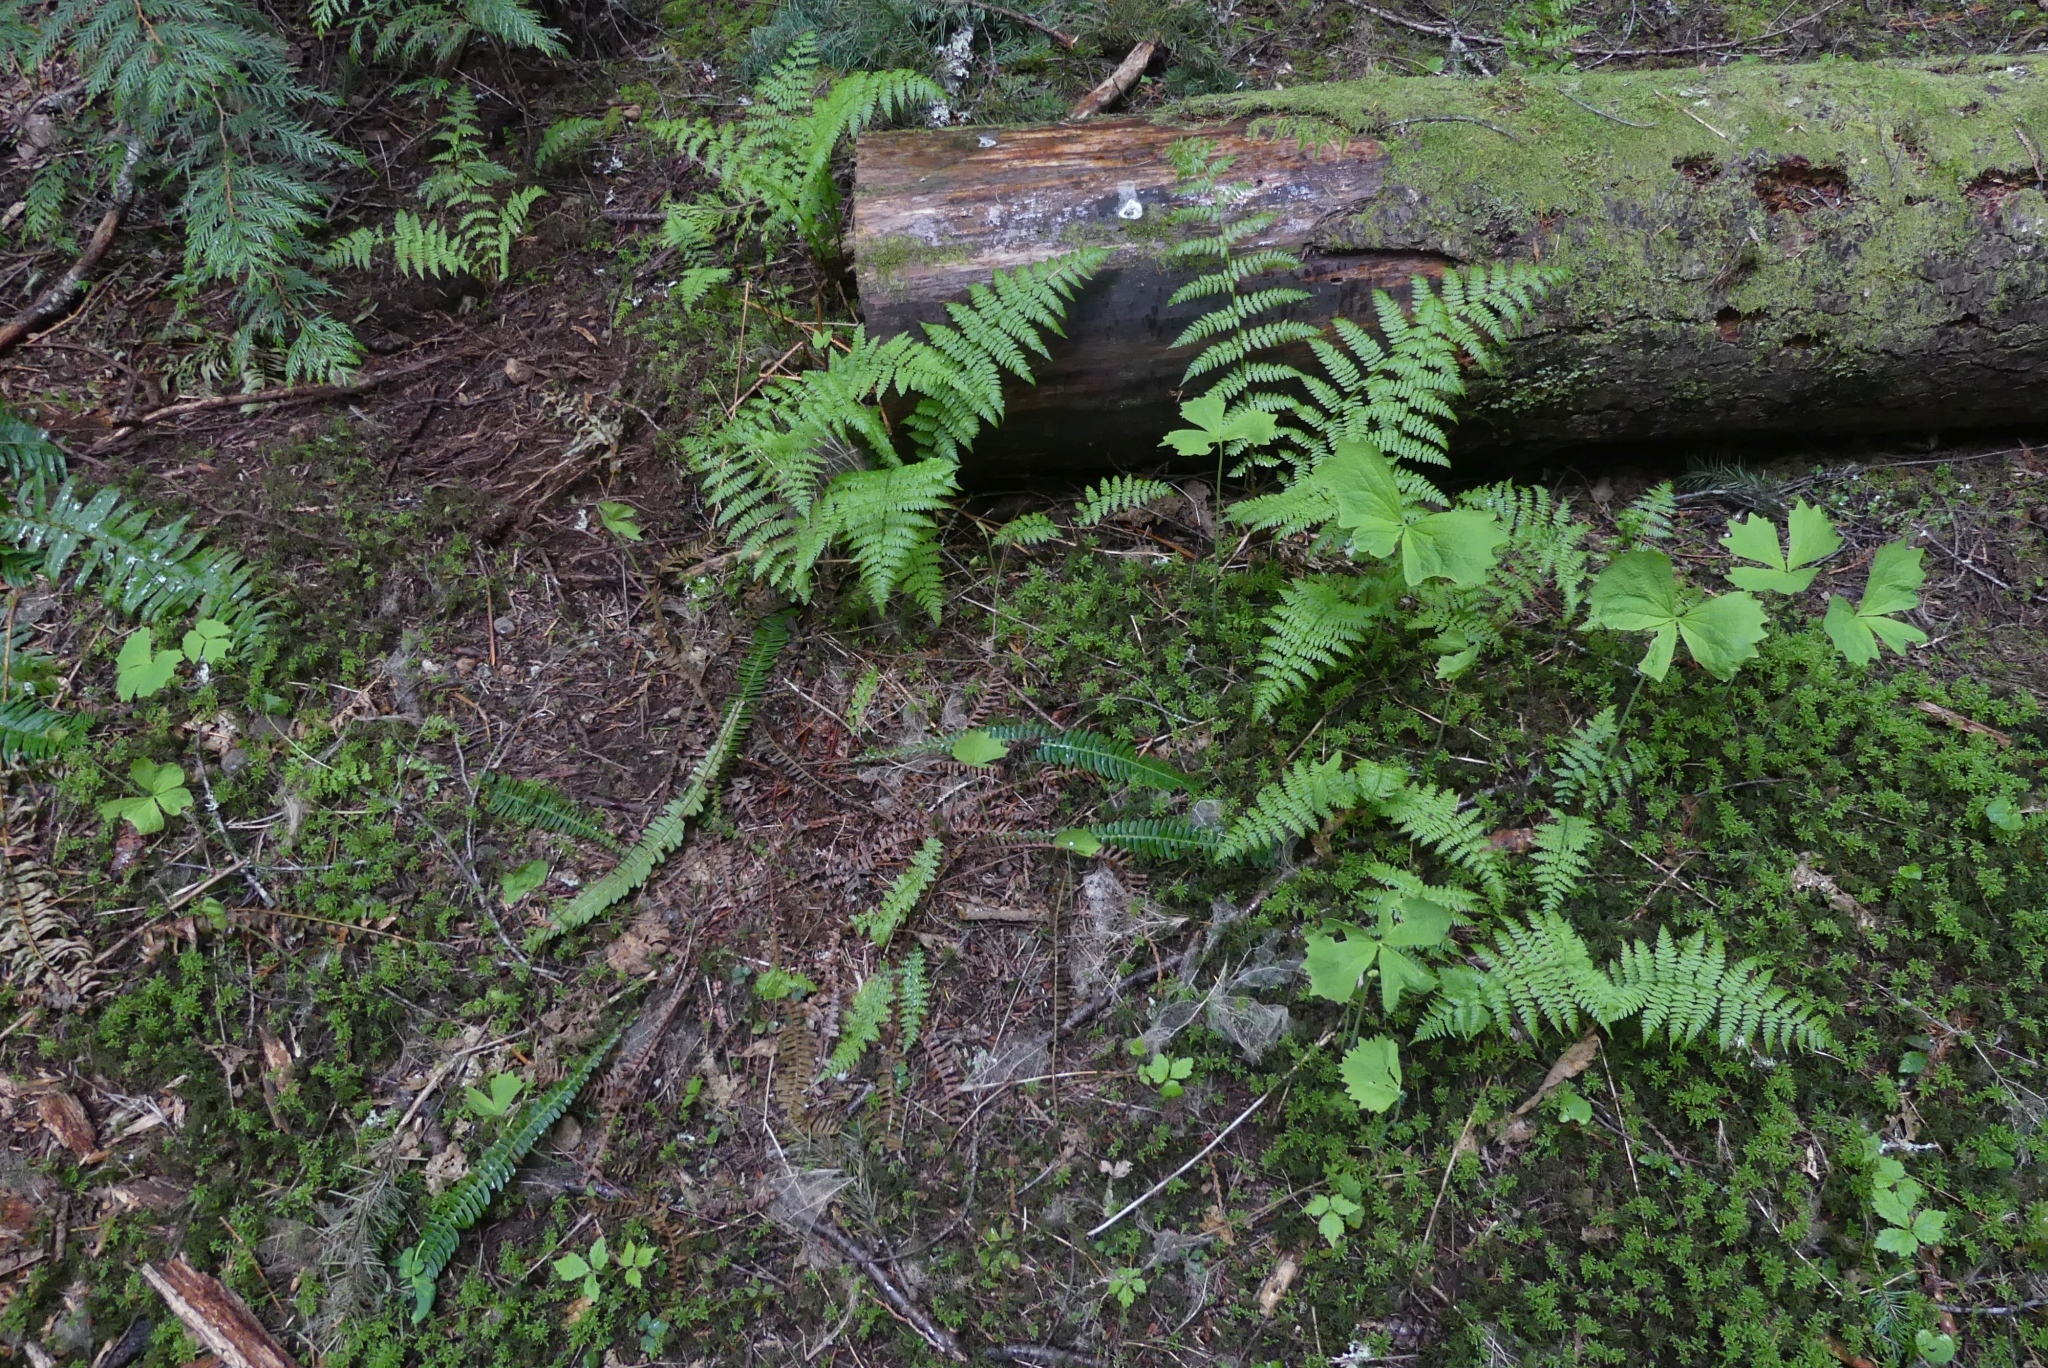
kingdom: Plantae
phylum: Tracheophyta
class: Polypodiopsida
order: Polypodiales
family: Blechnaceae
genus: Struthiopteris
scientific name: Struthiopteris spicant
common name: Deer fern
